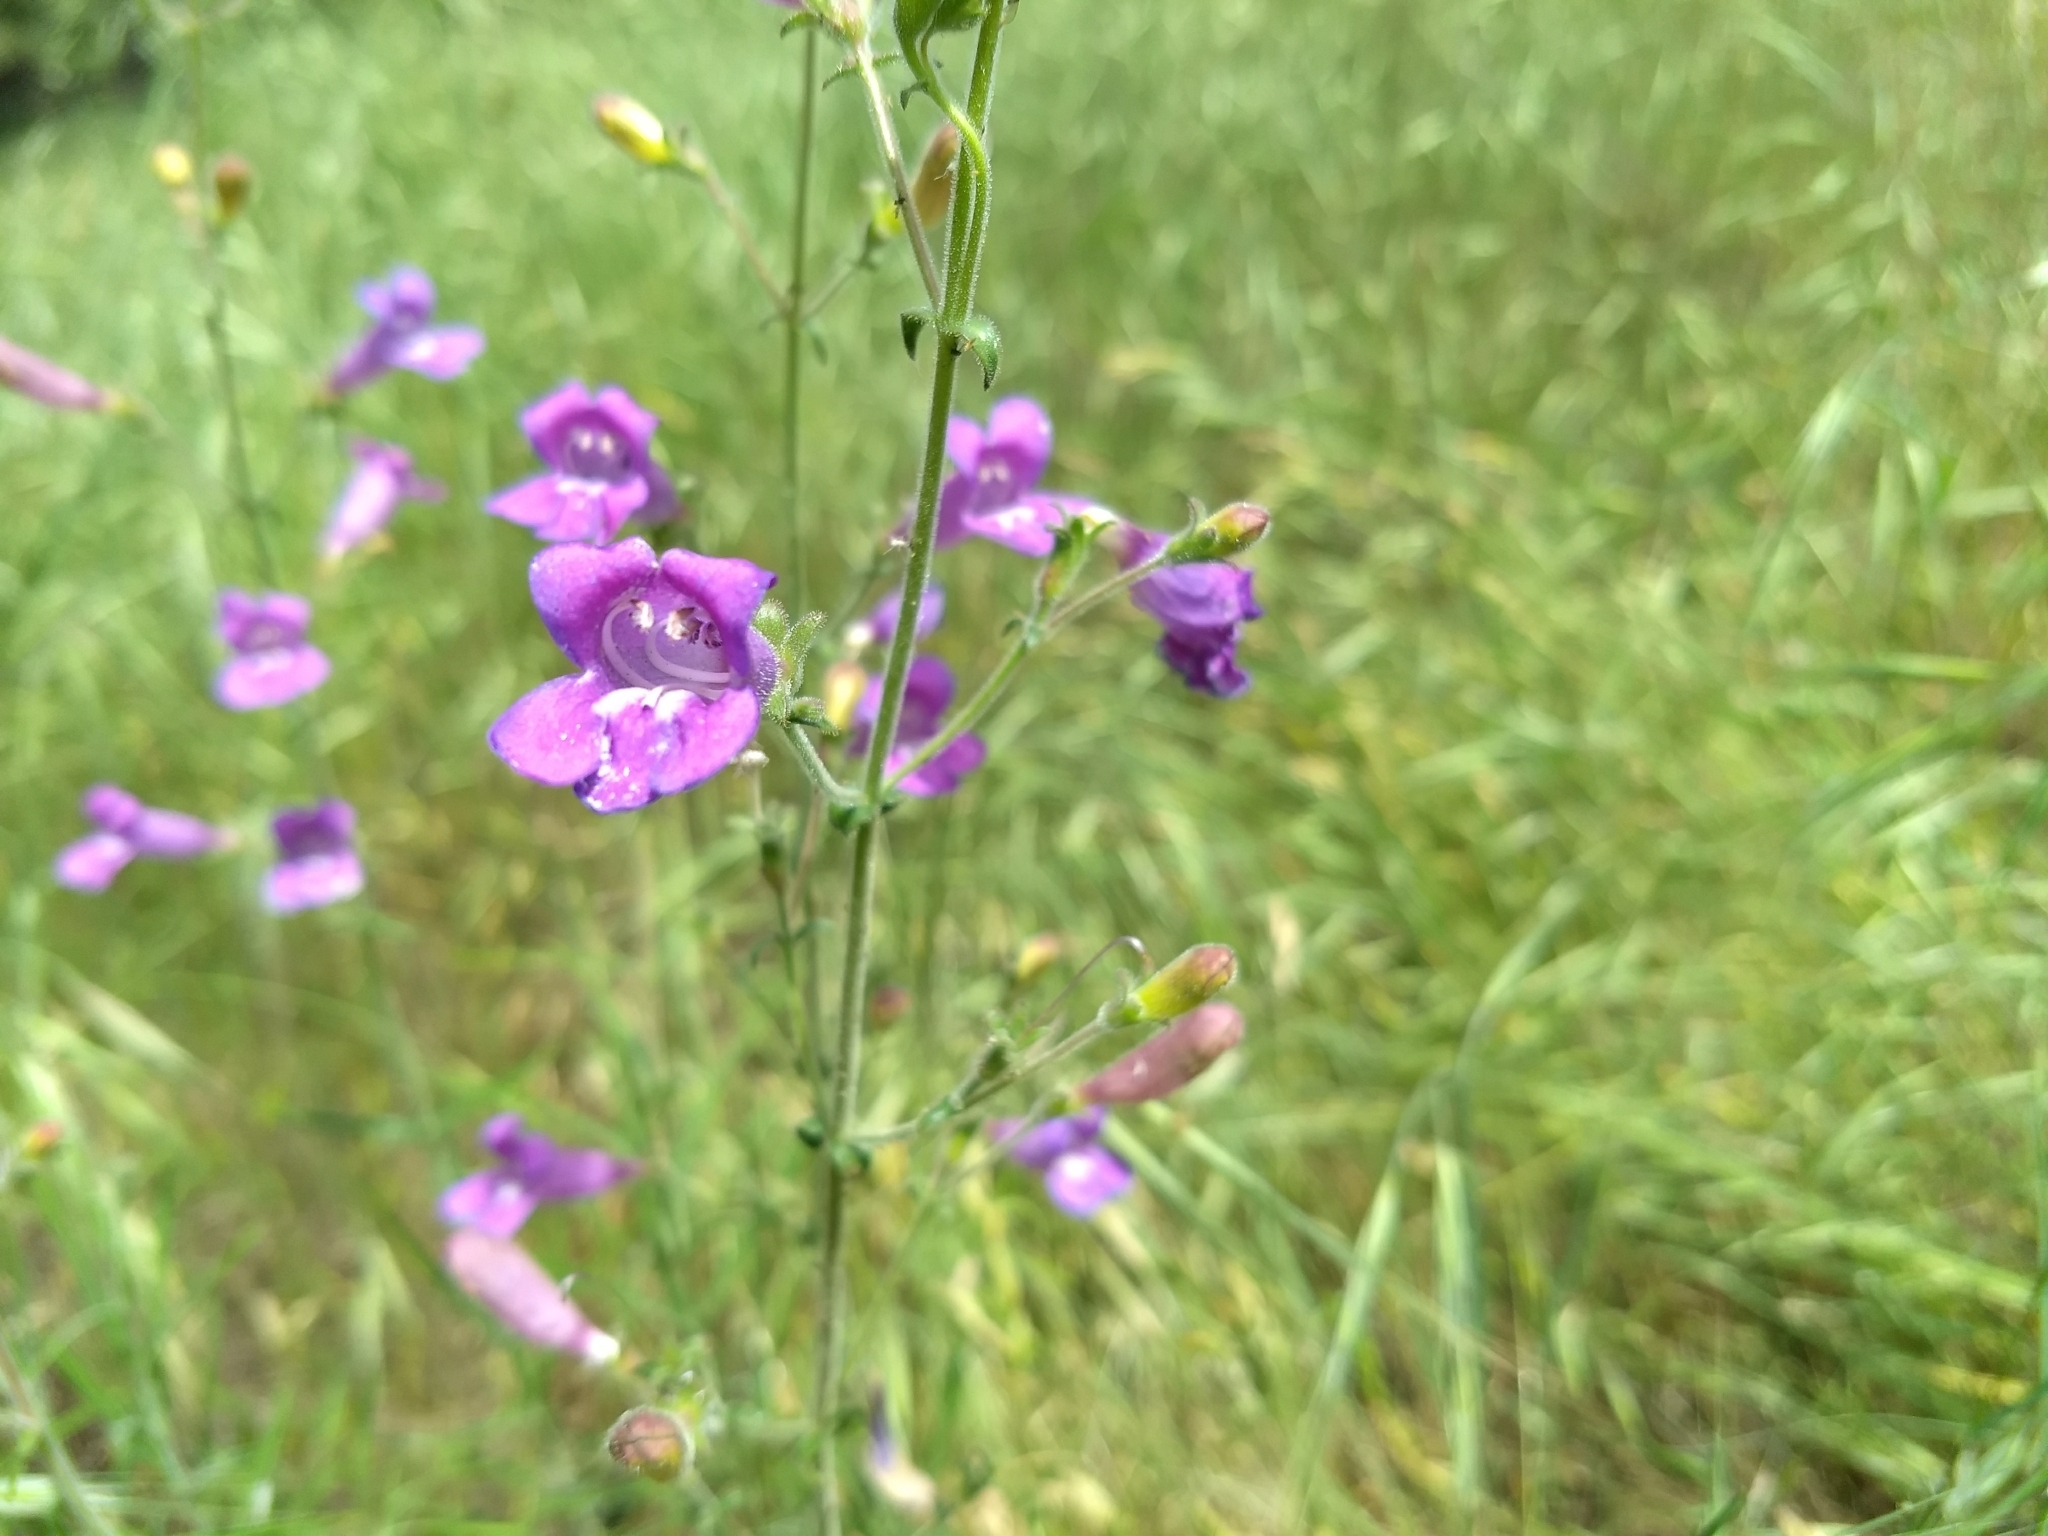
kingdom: Plantae
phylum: Tracheophyta
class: Magnoliopsida
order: Lamiales
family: Plantaginaceae
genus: Penstemon
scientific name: Penstemon laetus
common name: Gay penstemon
